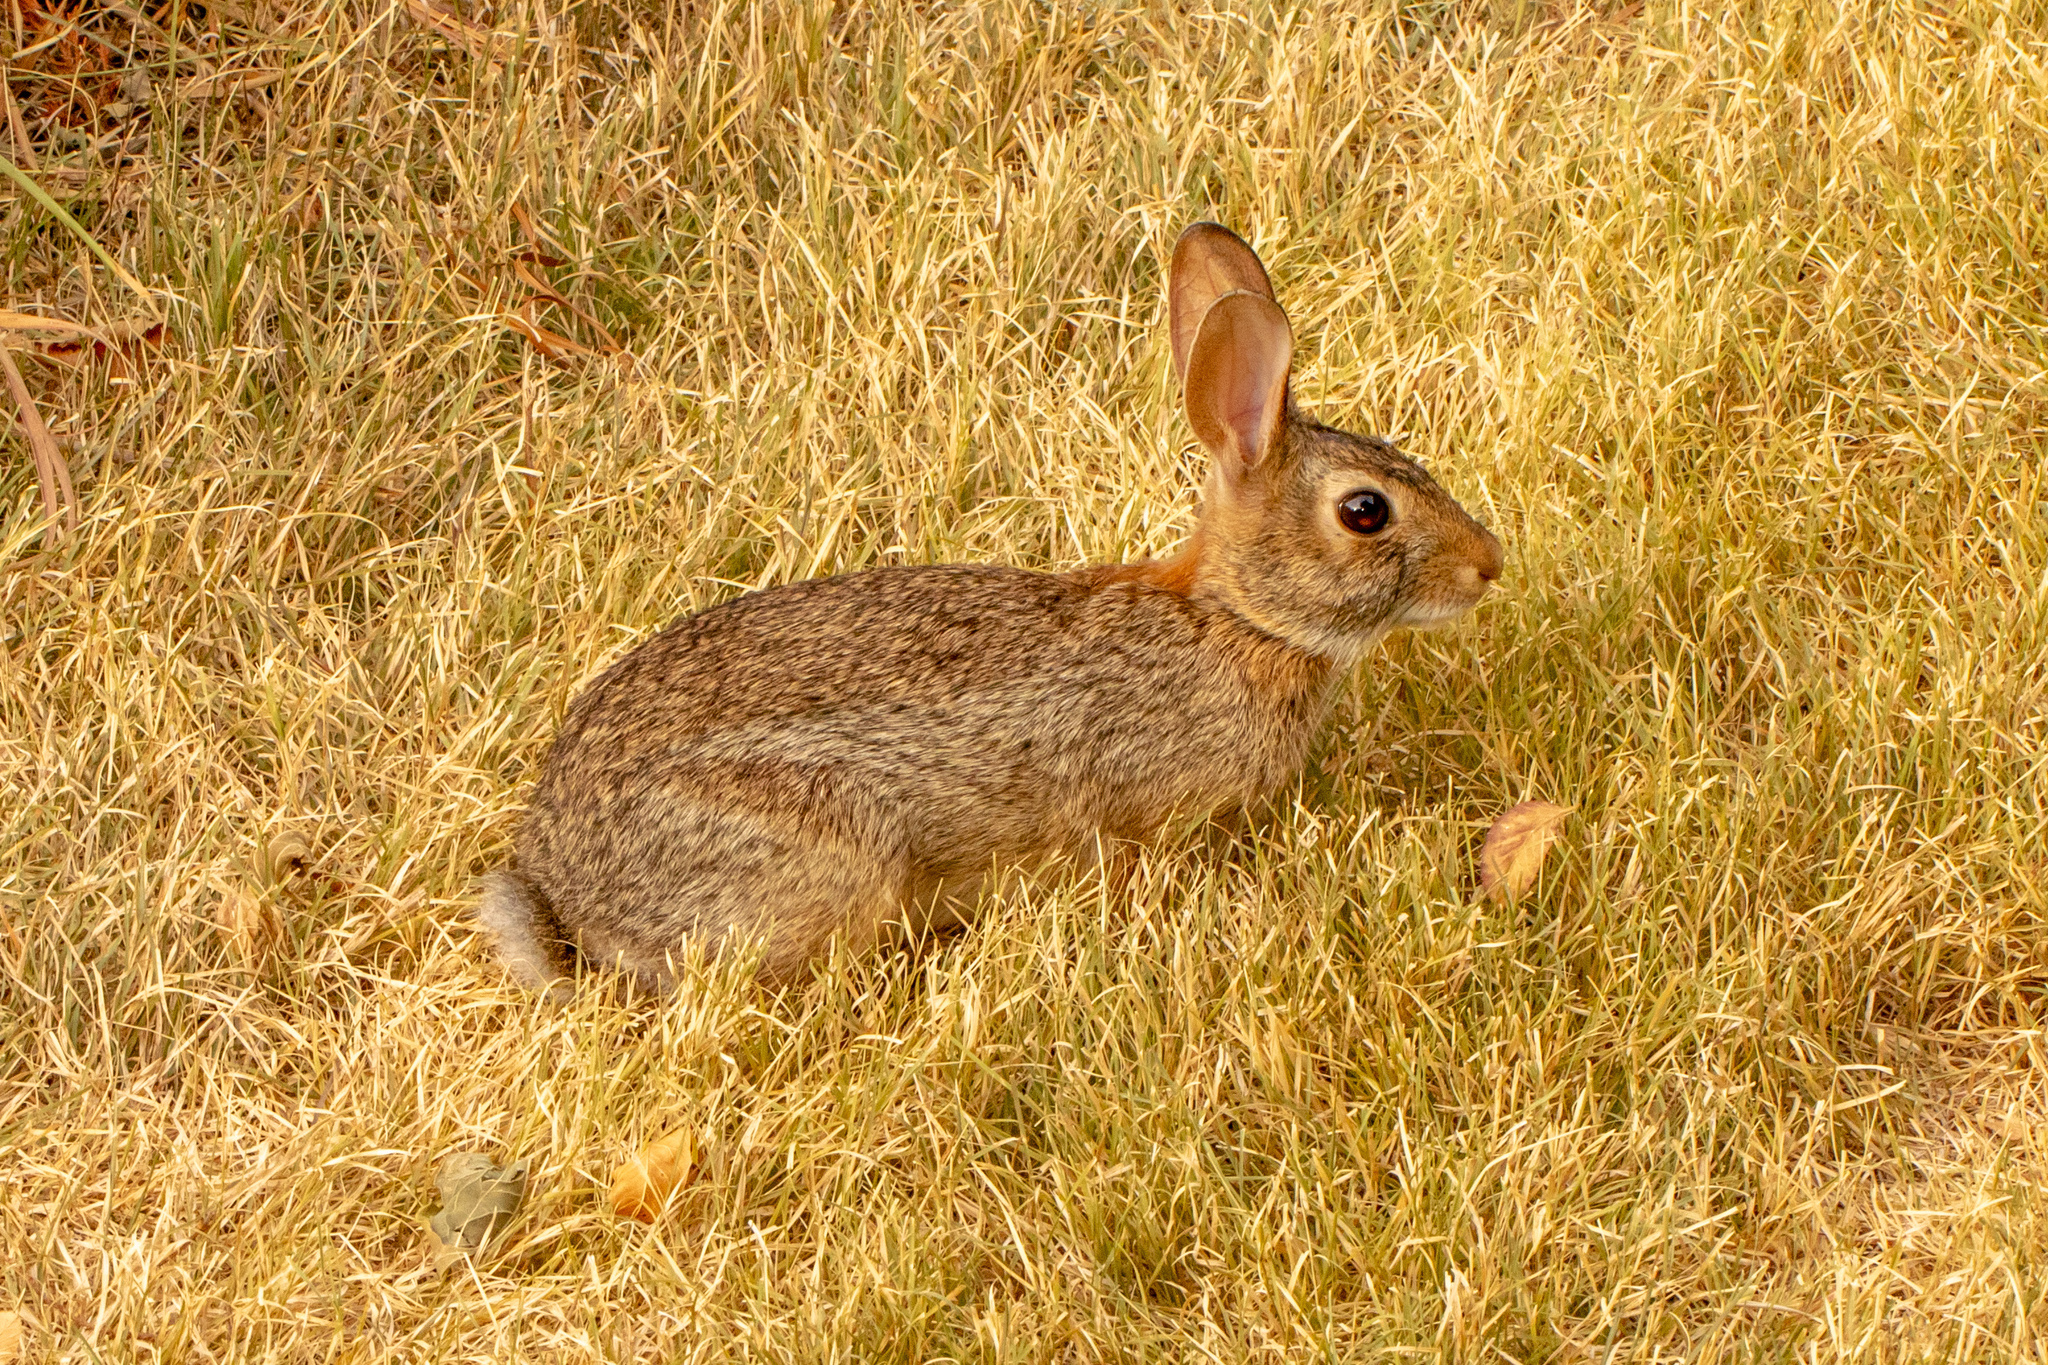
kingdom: Animalia
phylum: Chordata
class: Mammalia
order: Lagomorpha
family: Leporidae
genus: Sylvilagus
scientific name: Sylvilagus floridanus
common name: Eastern cottontail
